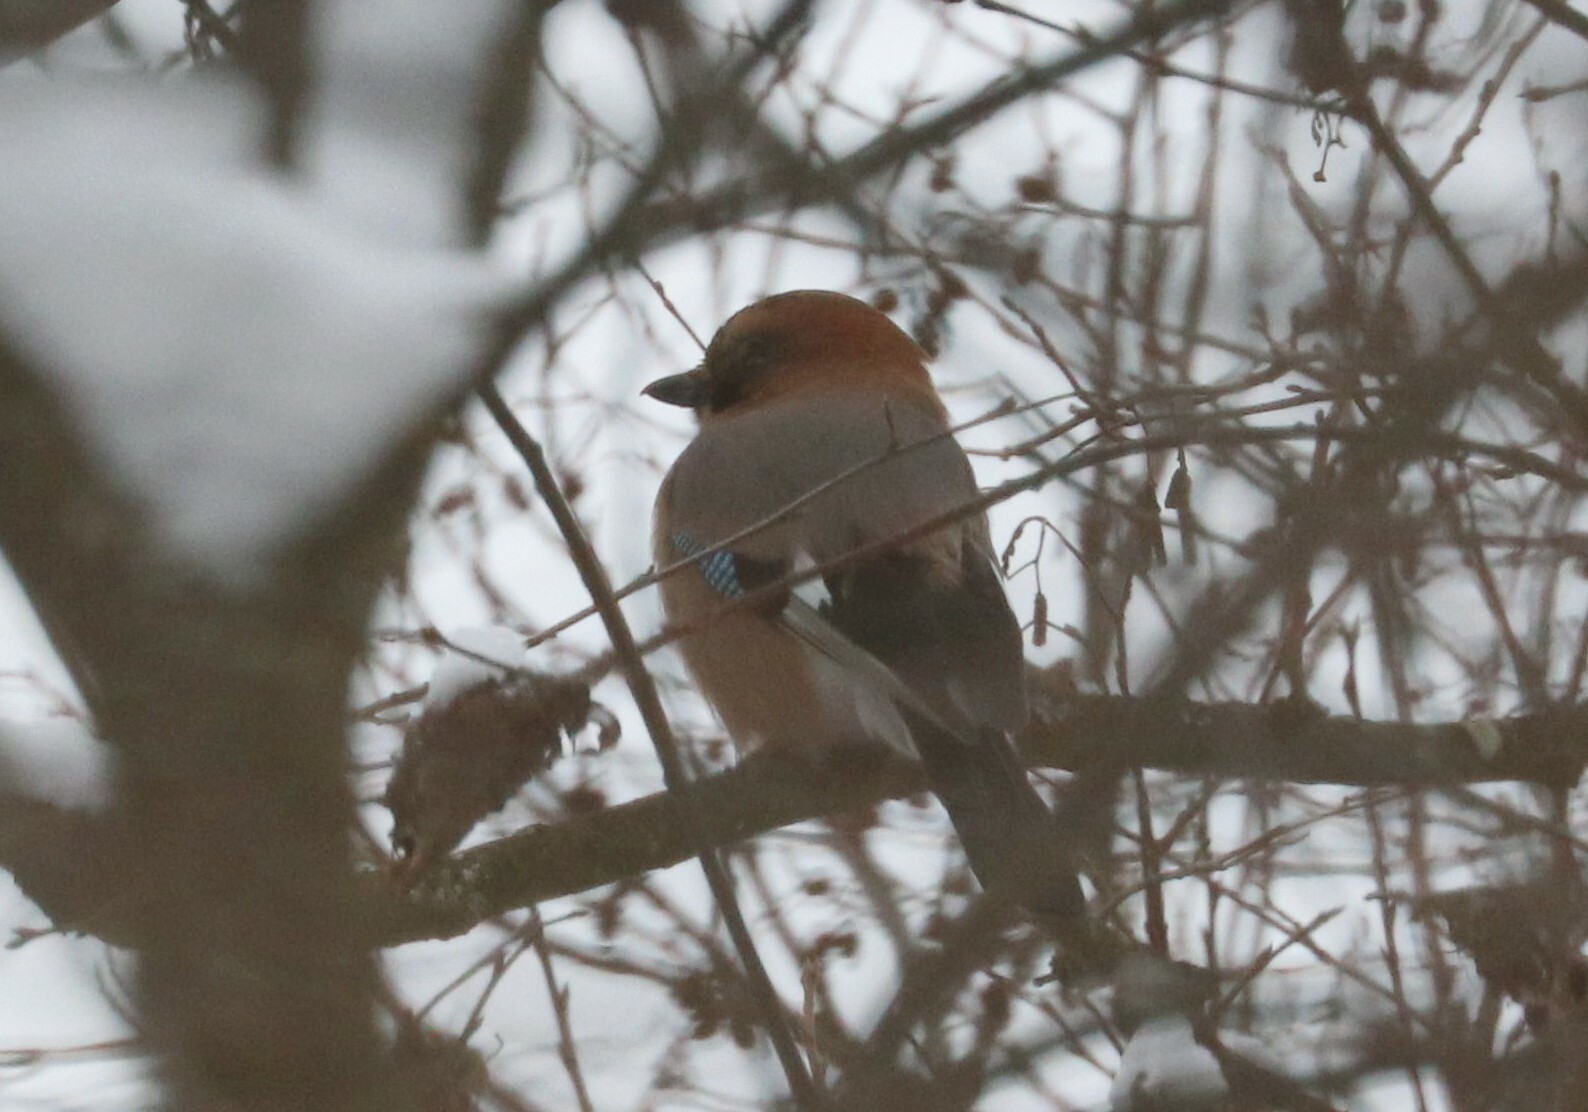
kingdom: Animalia
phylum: Chordata
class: Aves
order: Passeriformes
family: Corvidae
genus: Garrulus
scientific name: Garrulus glandarius
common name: Eurasian jay
